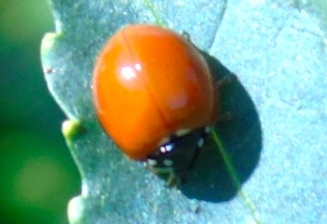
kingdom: Animalia
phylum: Arthropoda
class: Insecta
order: Coleoptera
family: Coccinellidae
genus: Cycloneda
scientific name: Cycloneda sanguinea
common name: Ladybird beetle
